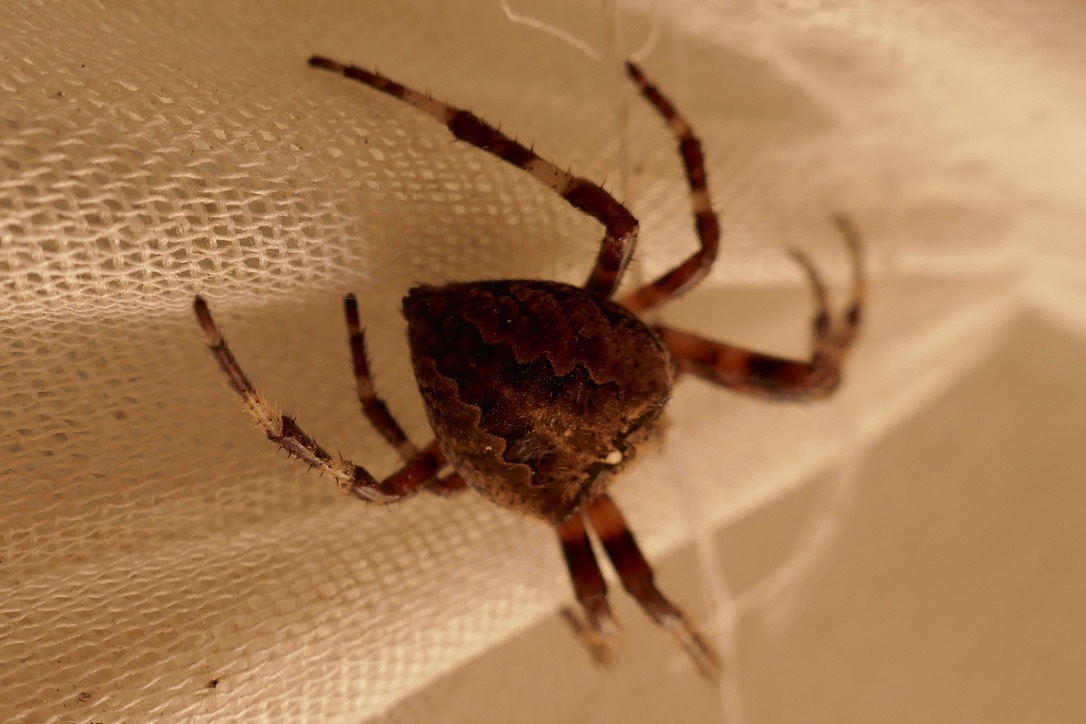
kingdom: Animalia
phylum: Arthropoda
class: Arachnida
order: Araneae
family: Araneidae
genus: Araneus
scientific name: Araneus angulatus
